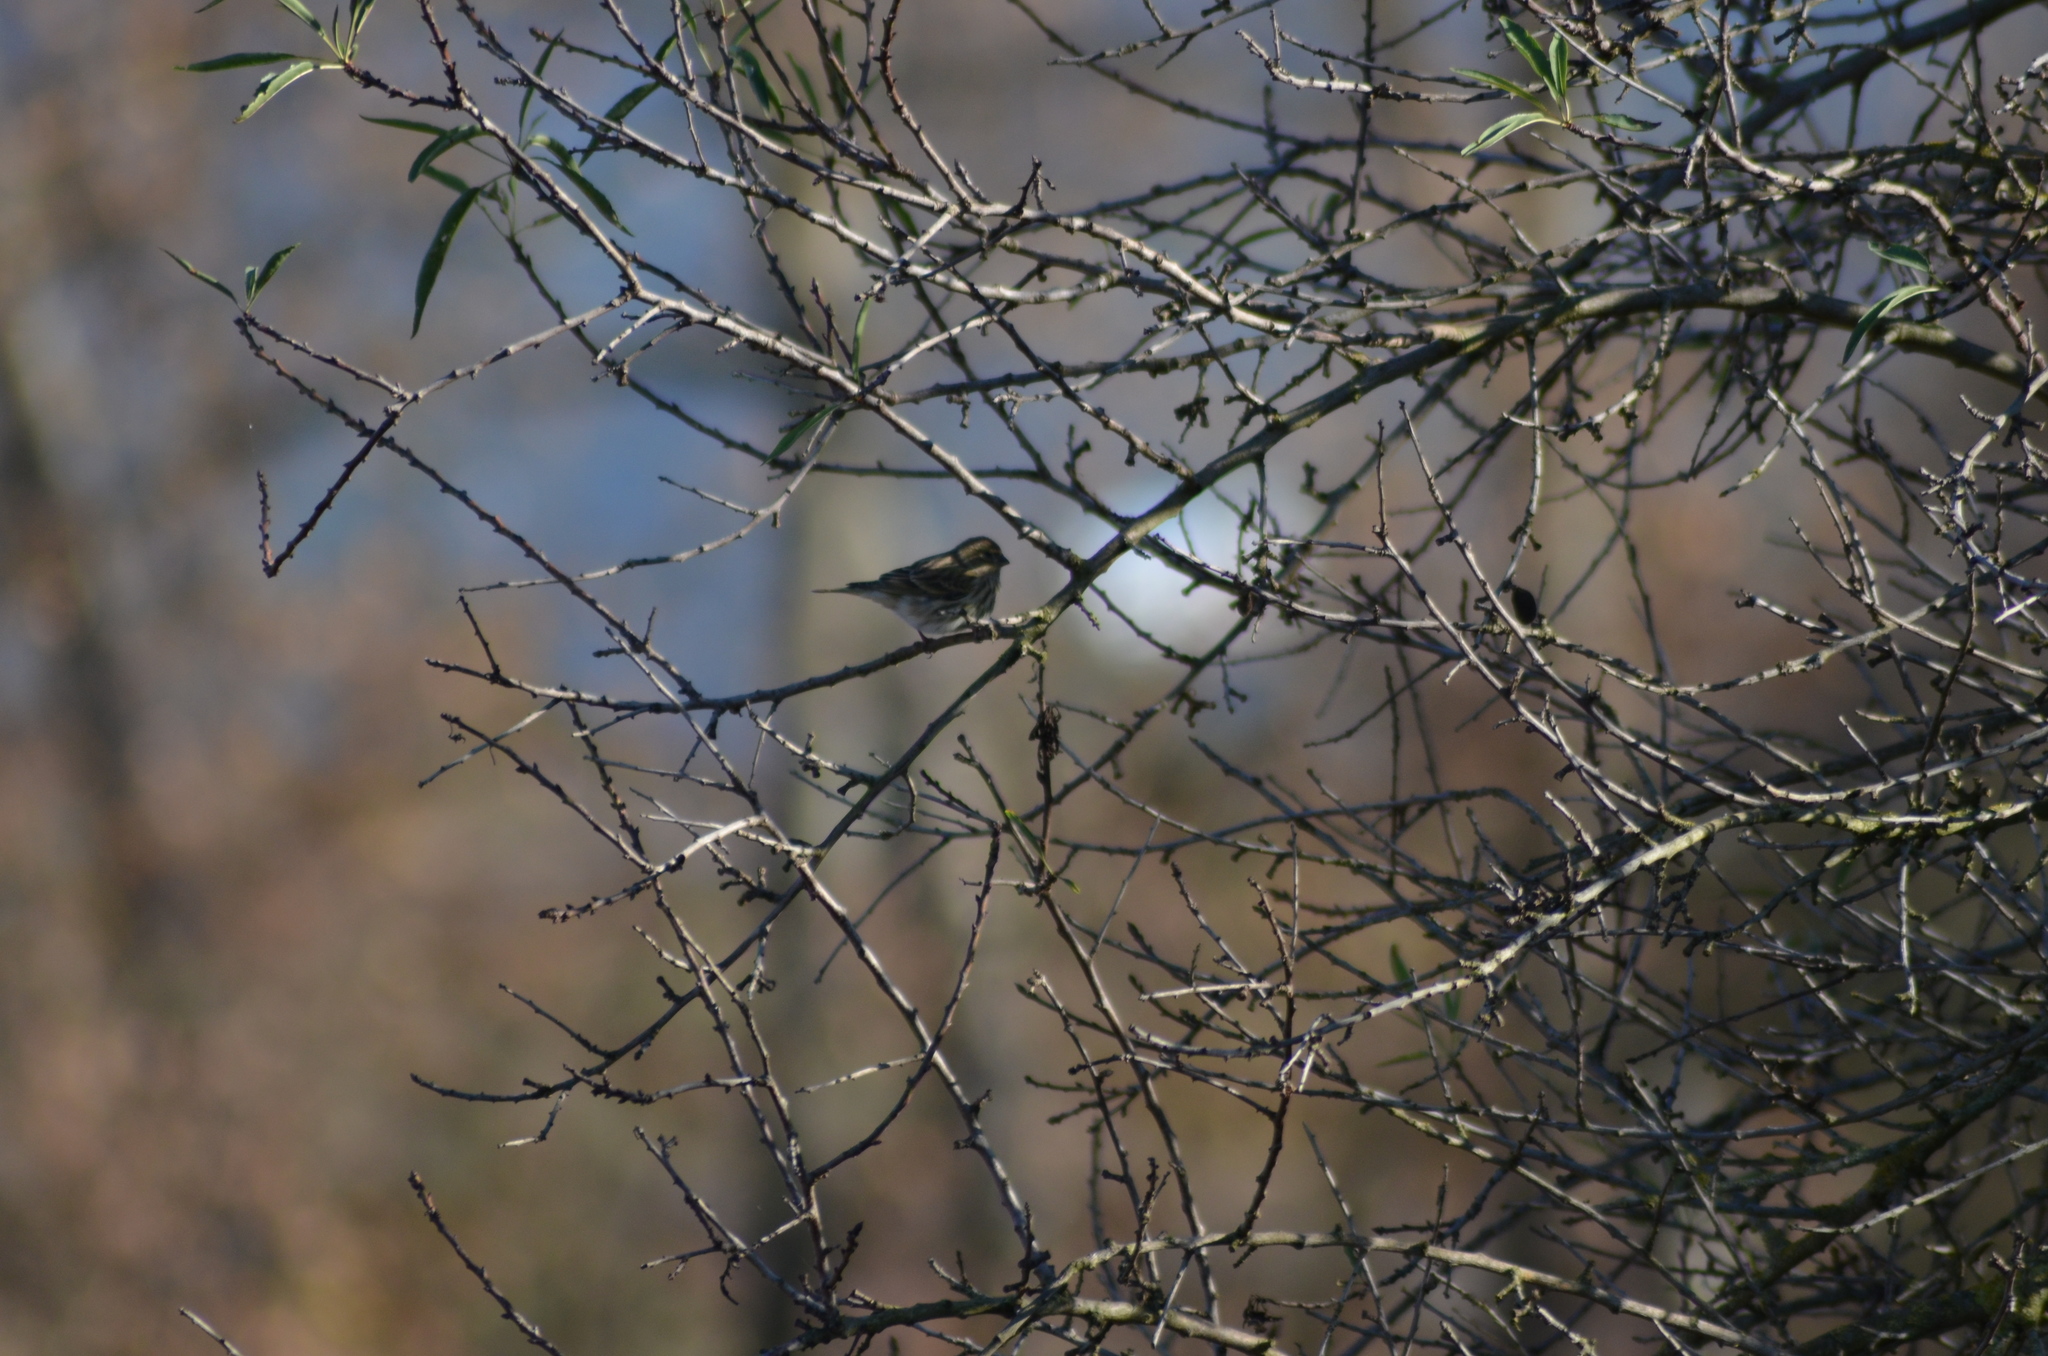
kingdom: Animalia
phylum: Chordata
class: Aves
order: Passeriformes
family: Fringillidae
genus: Serinus
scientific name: Serinus serinus
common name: European serin
